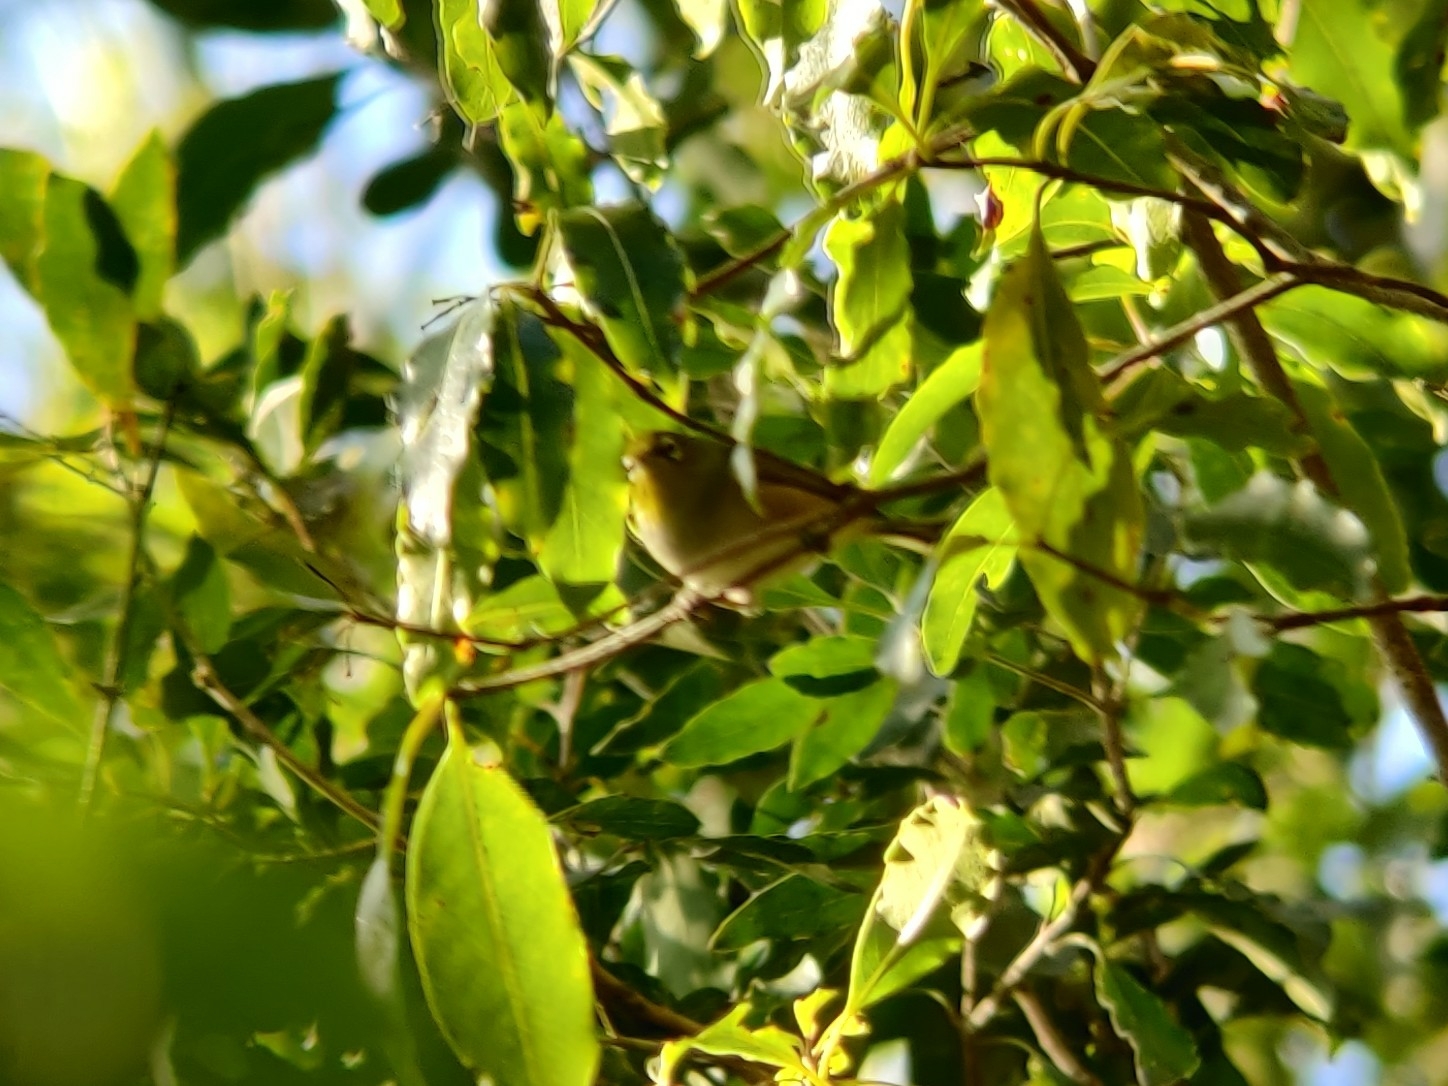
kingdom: Animalia
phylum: Chordata
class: Aves
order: Passeriformes
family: Zosteropidae
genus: Zosterops
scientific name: Zosterops lateralis
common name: Silvereye
